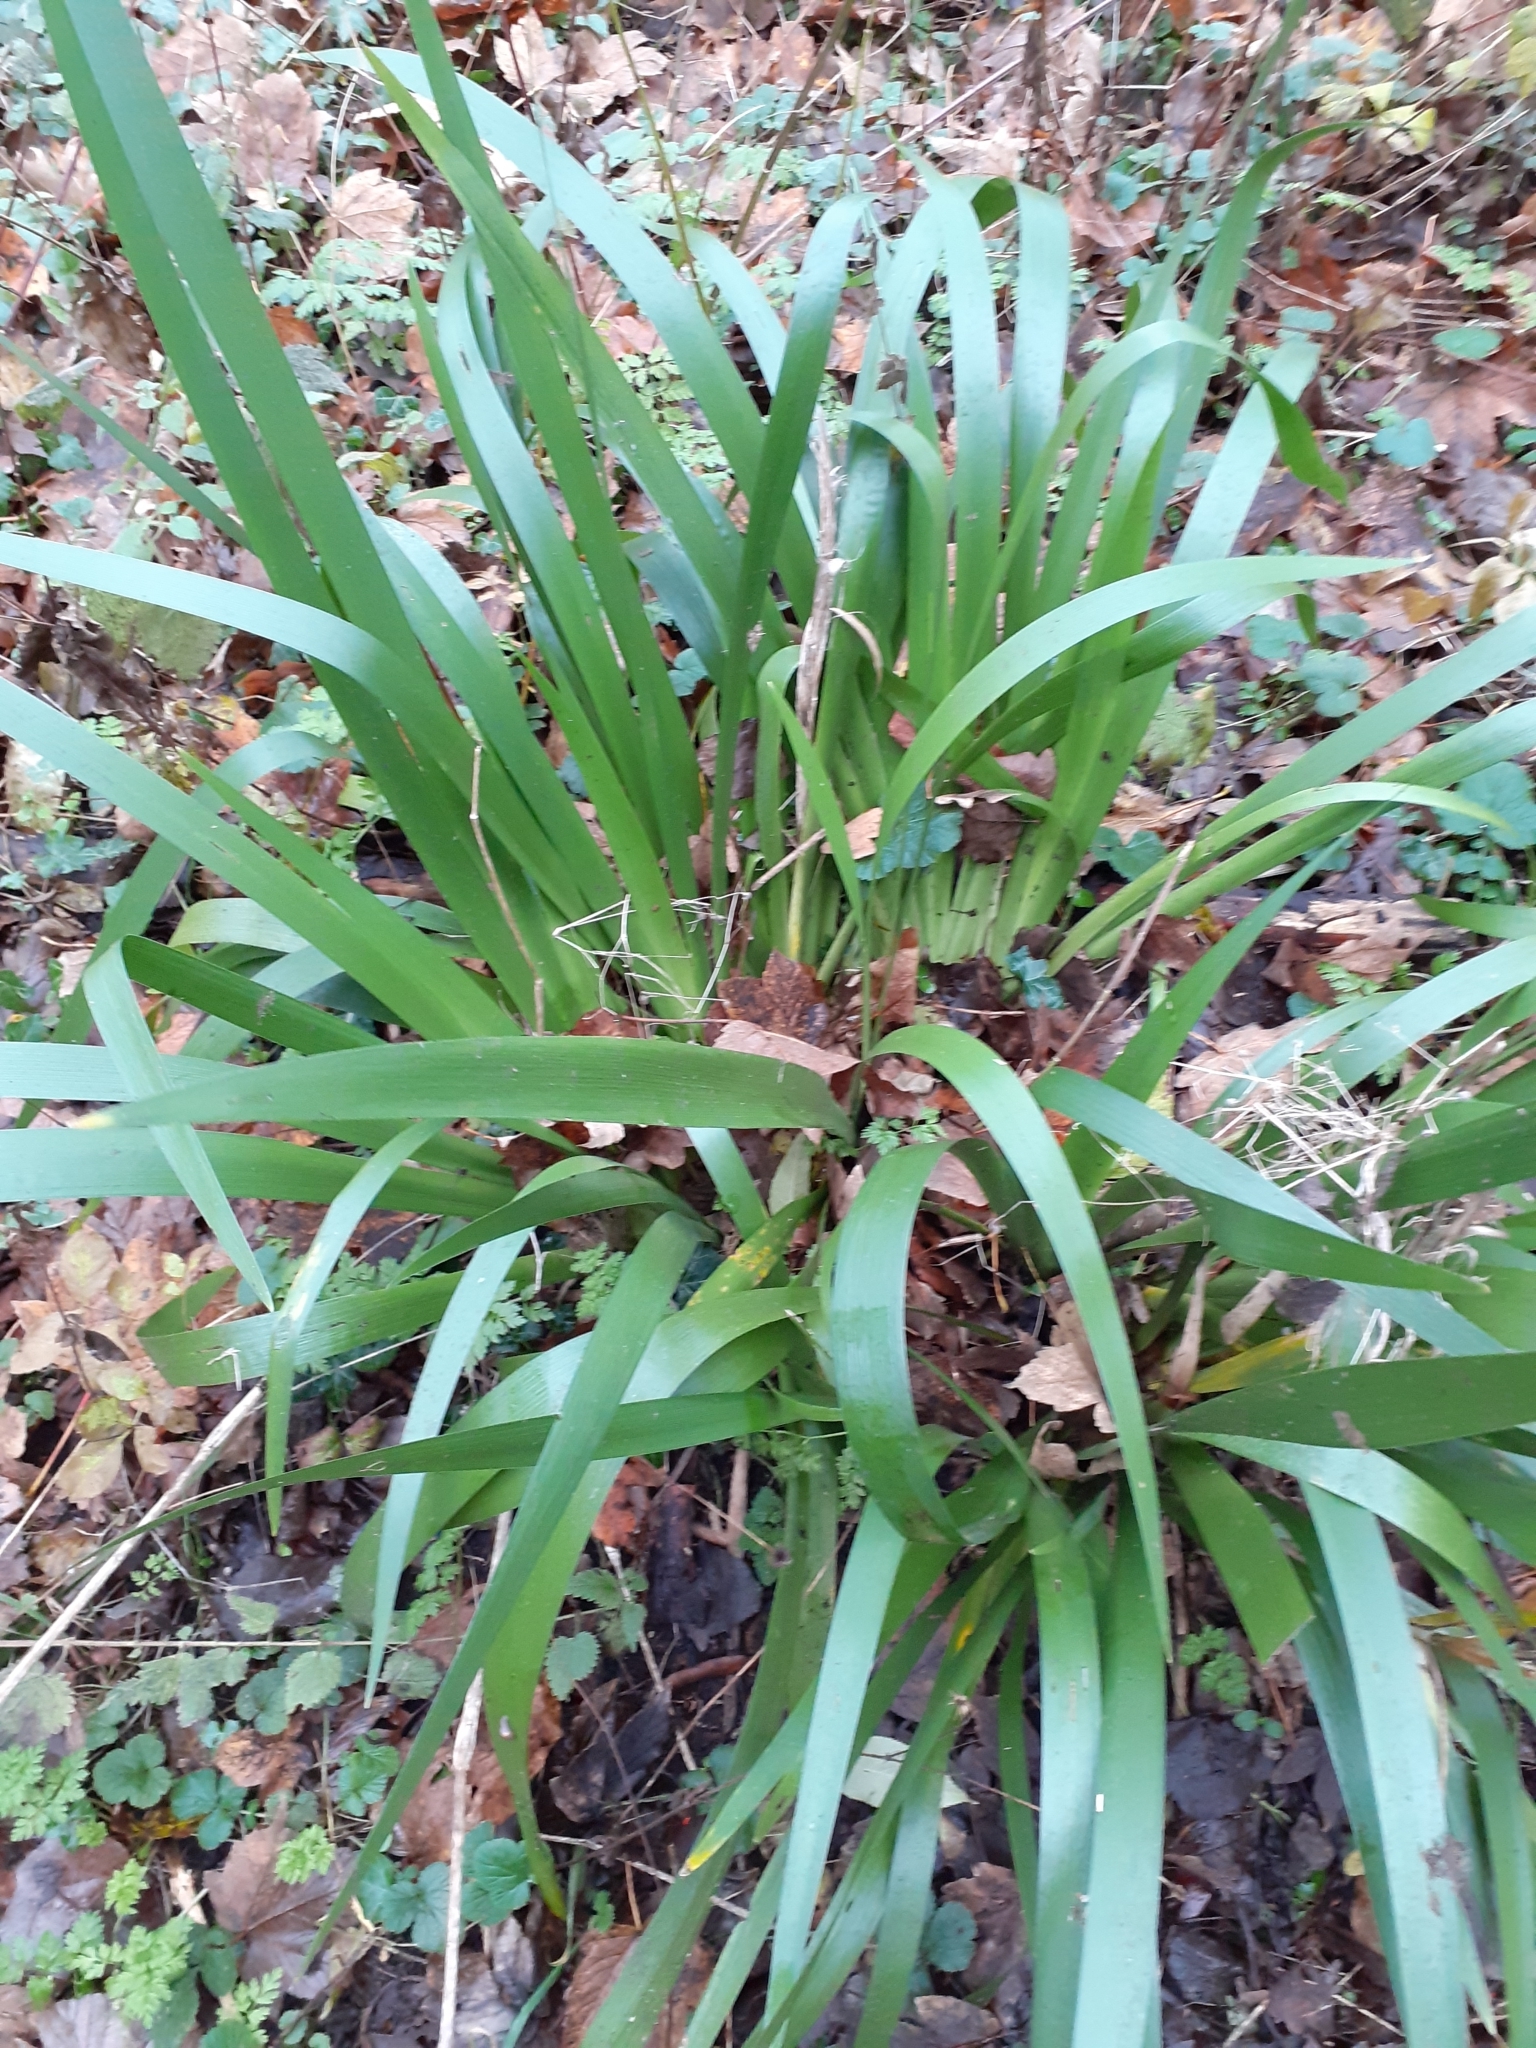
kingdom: Plantae
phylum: Tracheophyta
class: Liliopsida
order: Asparagales
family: Iridaceae
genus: Iris
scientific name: Iris foetidissima
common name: Stinking iris
